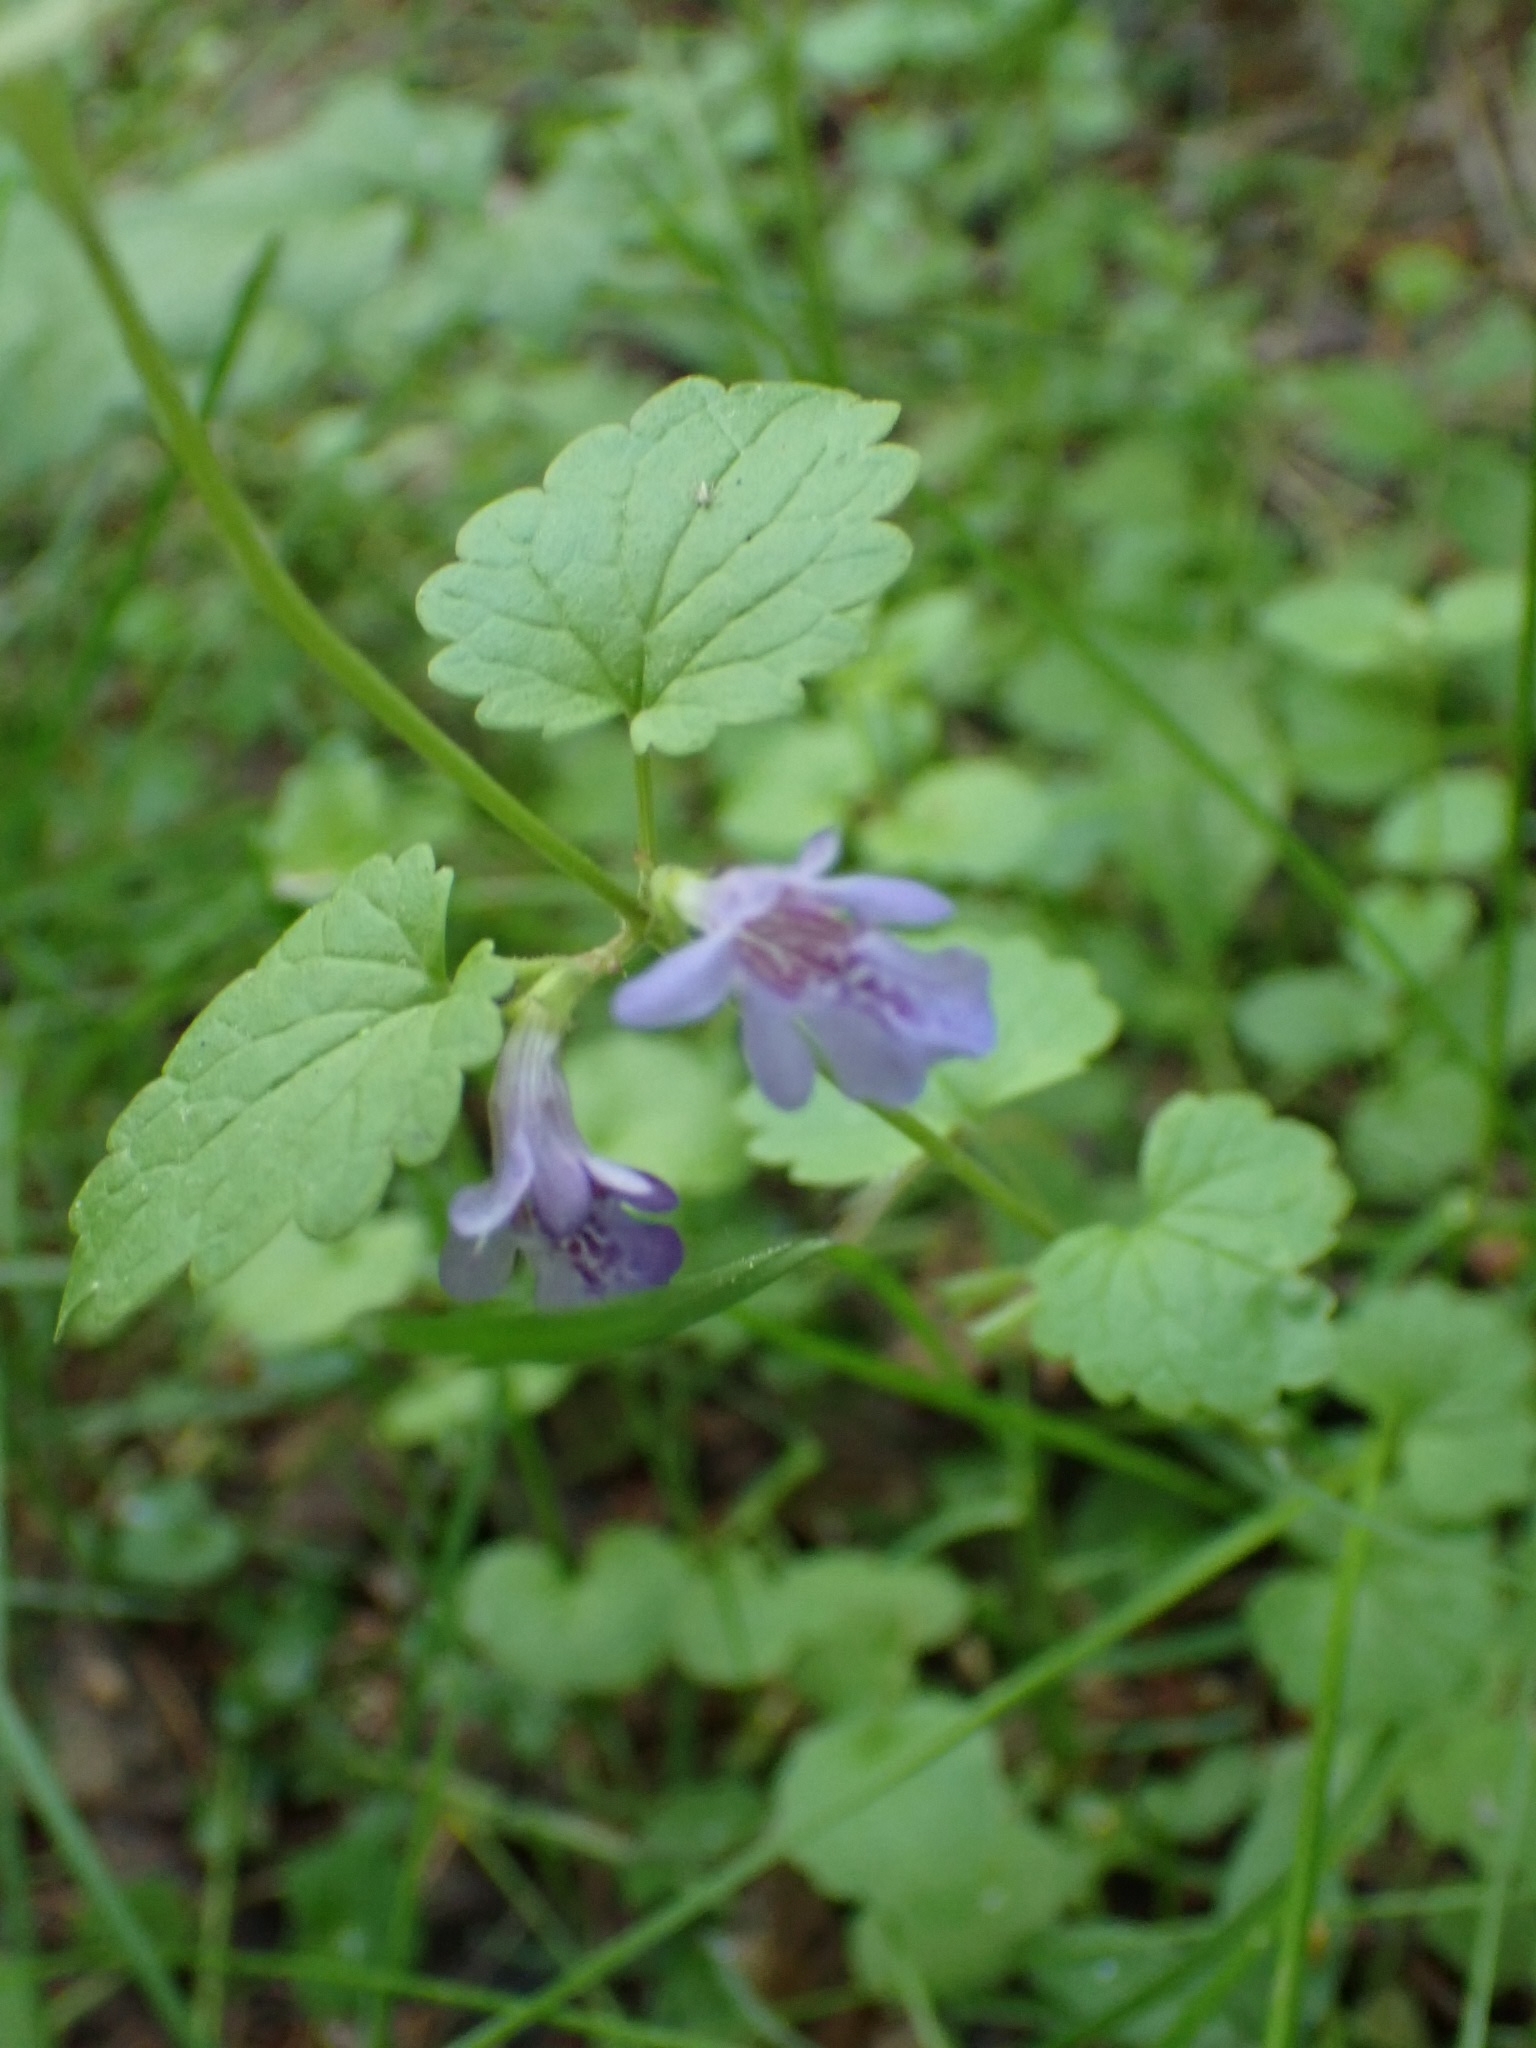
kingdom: Plantae
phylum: Tracheophyta
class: Magnoliopsida
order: Lamiales
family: Lamiaceae
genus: Glechoma
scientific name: Glechoma hederacea
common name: Ground ivy
